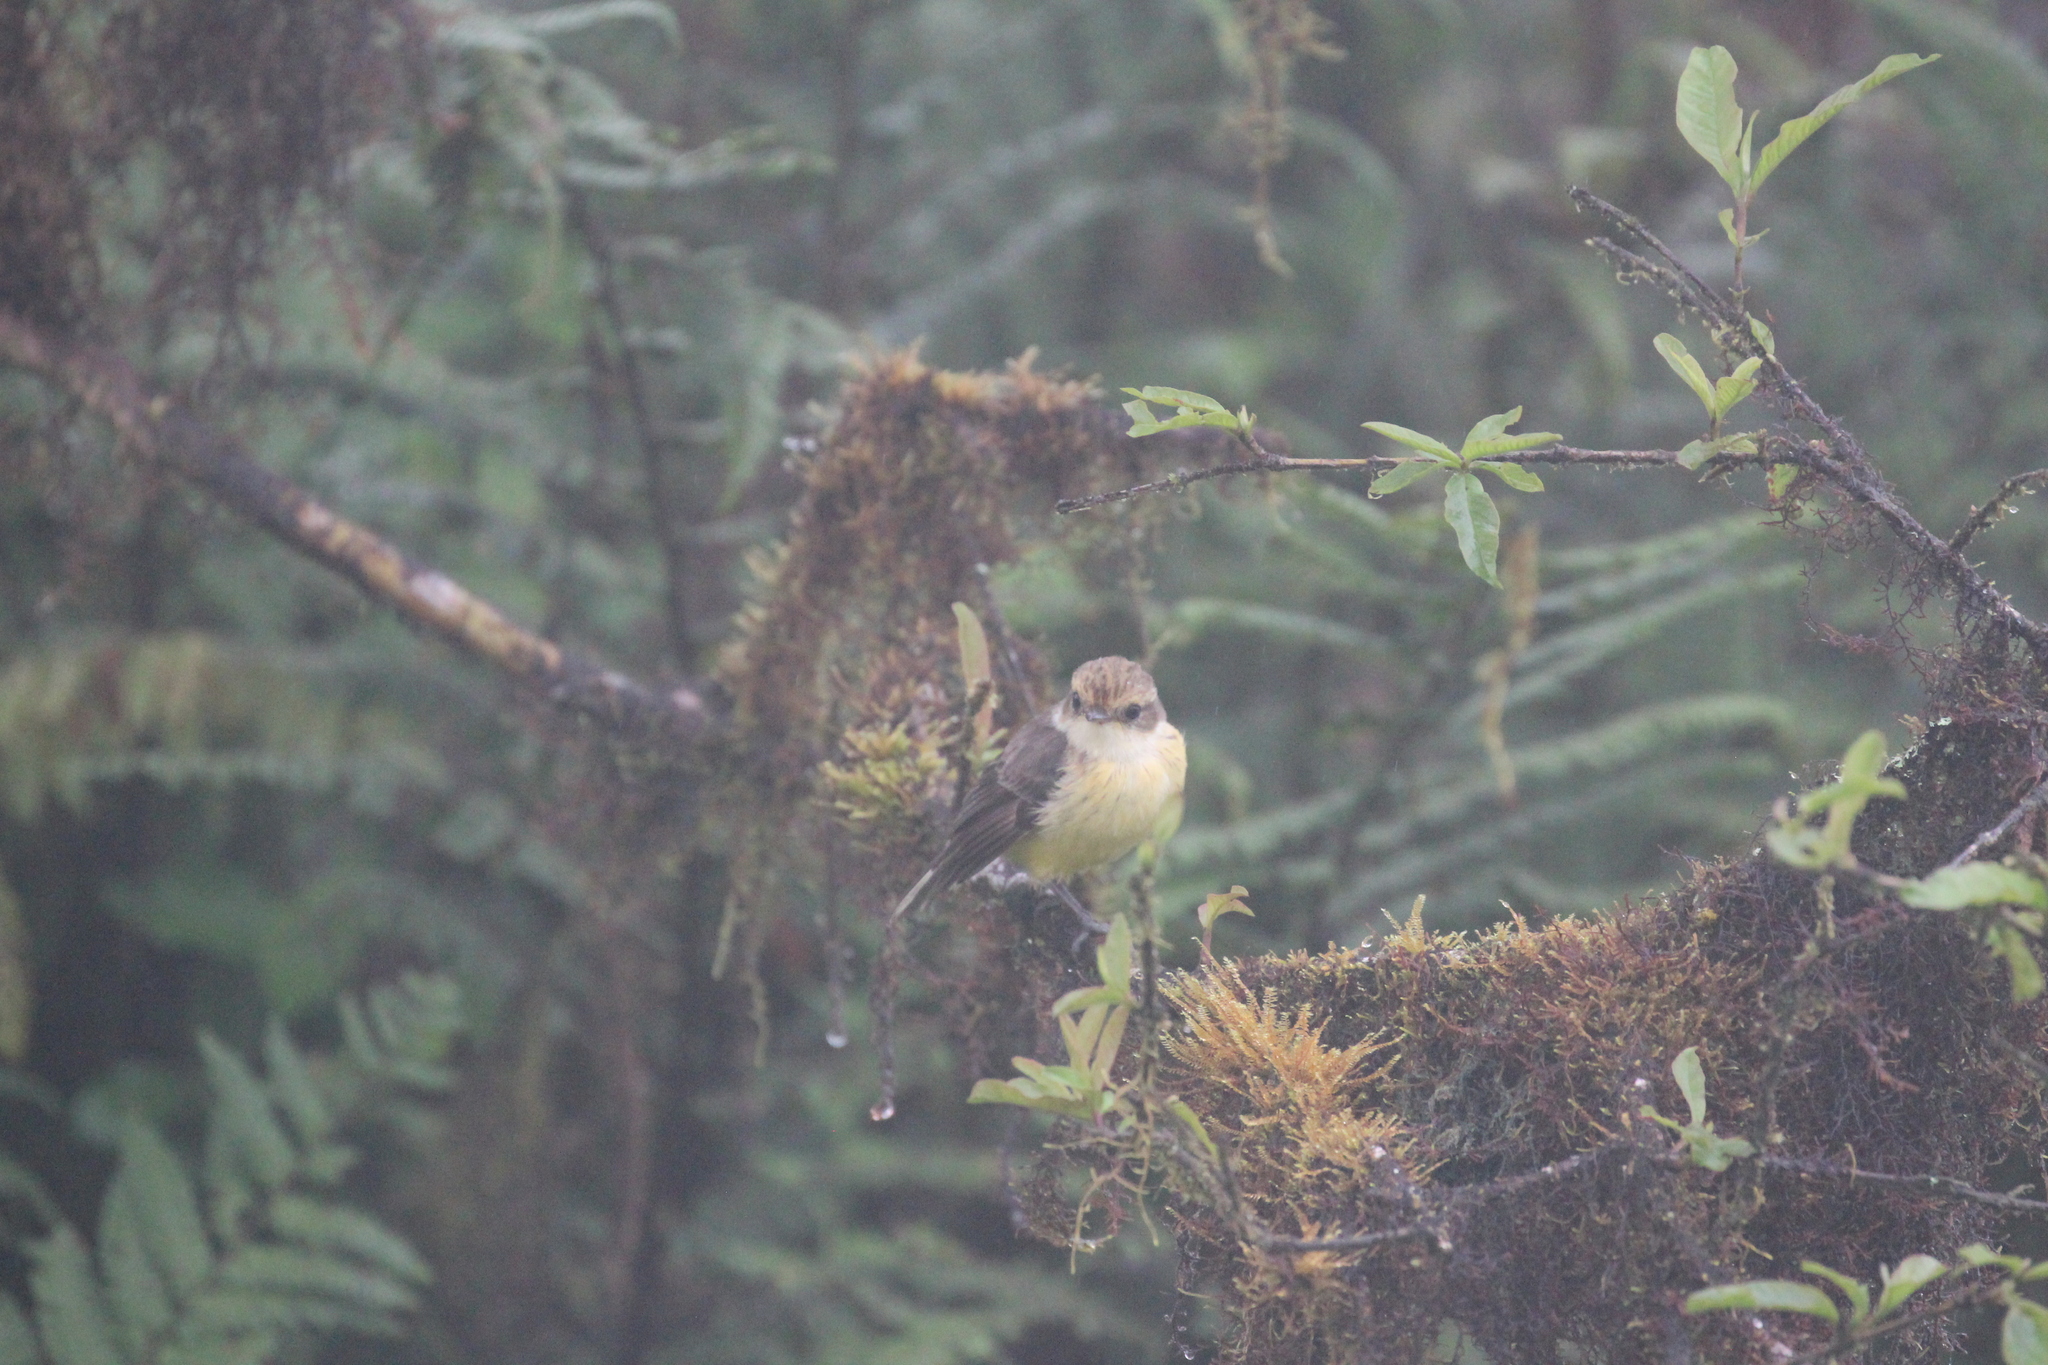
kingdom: Animalia
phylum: Chordata
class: Aves
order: Passeriformes
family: Tyrannidae
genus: Pyrocephalus
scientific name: Pyrocephalus rubinus
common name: Vermilion flycatcher
